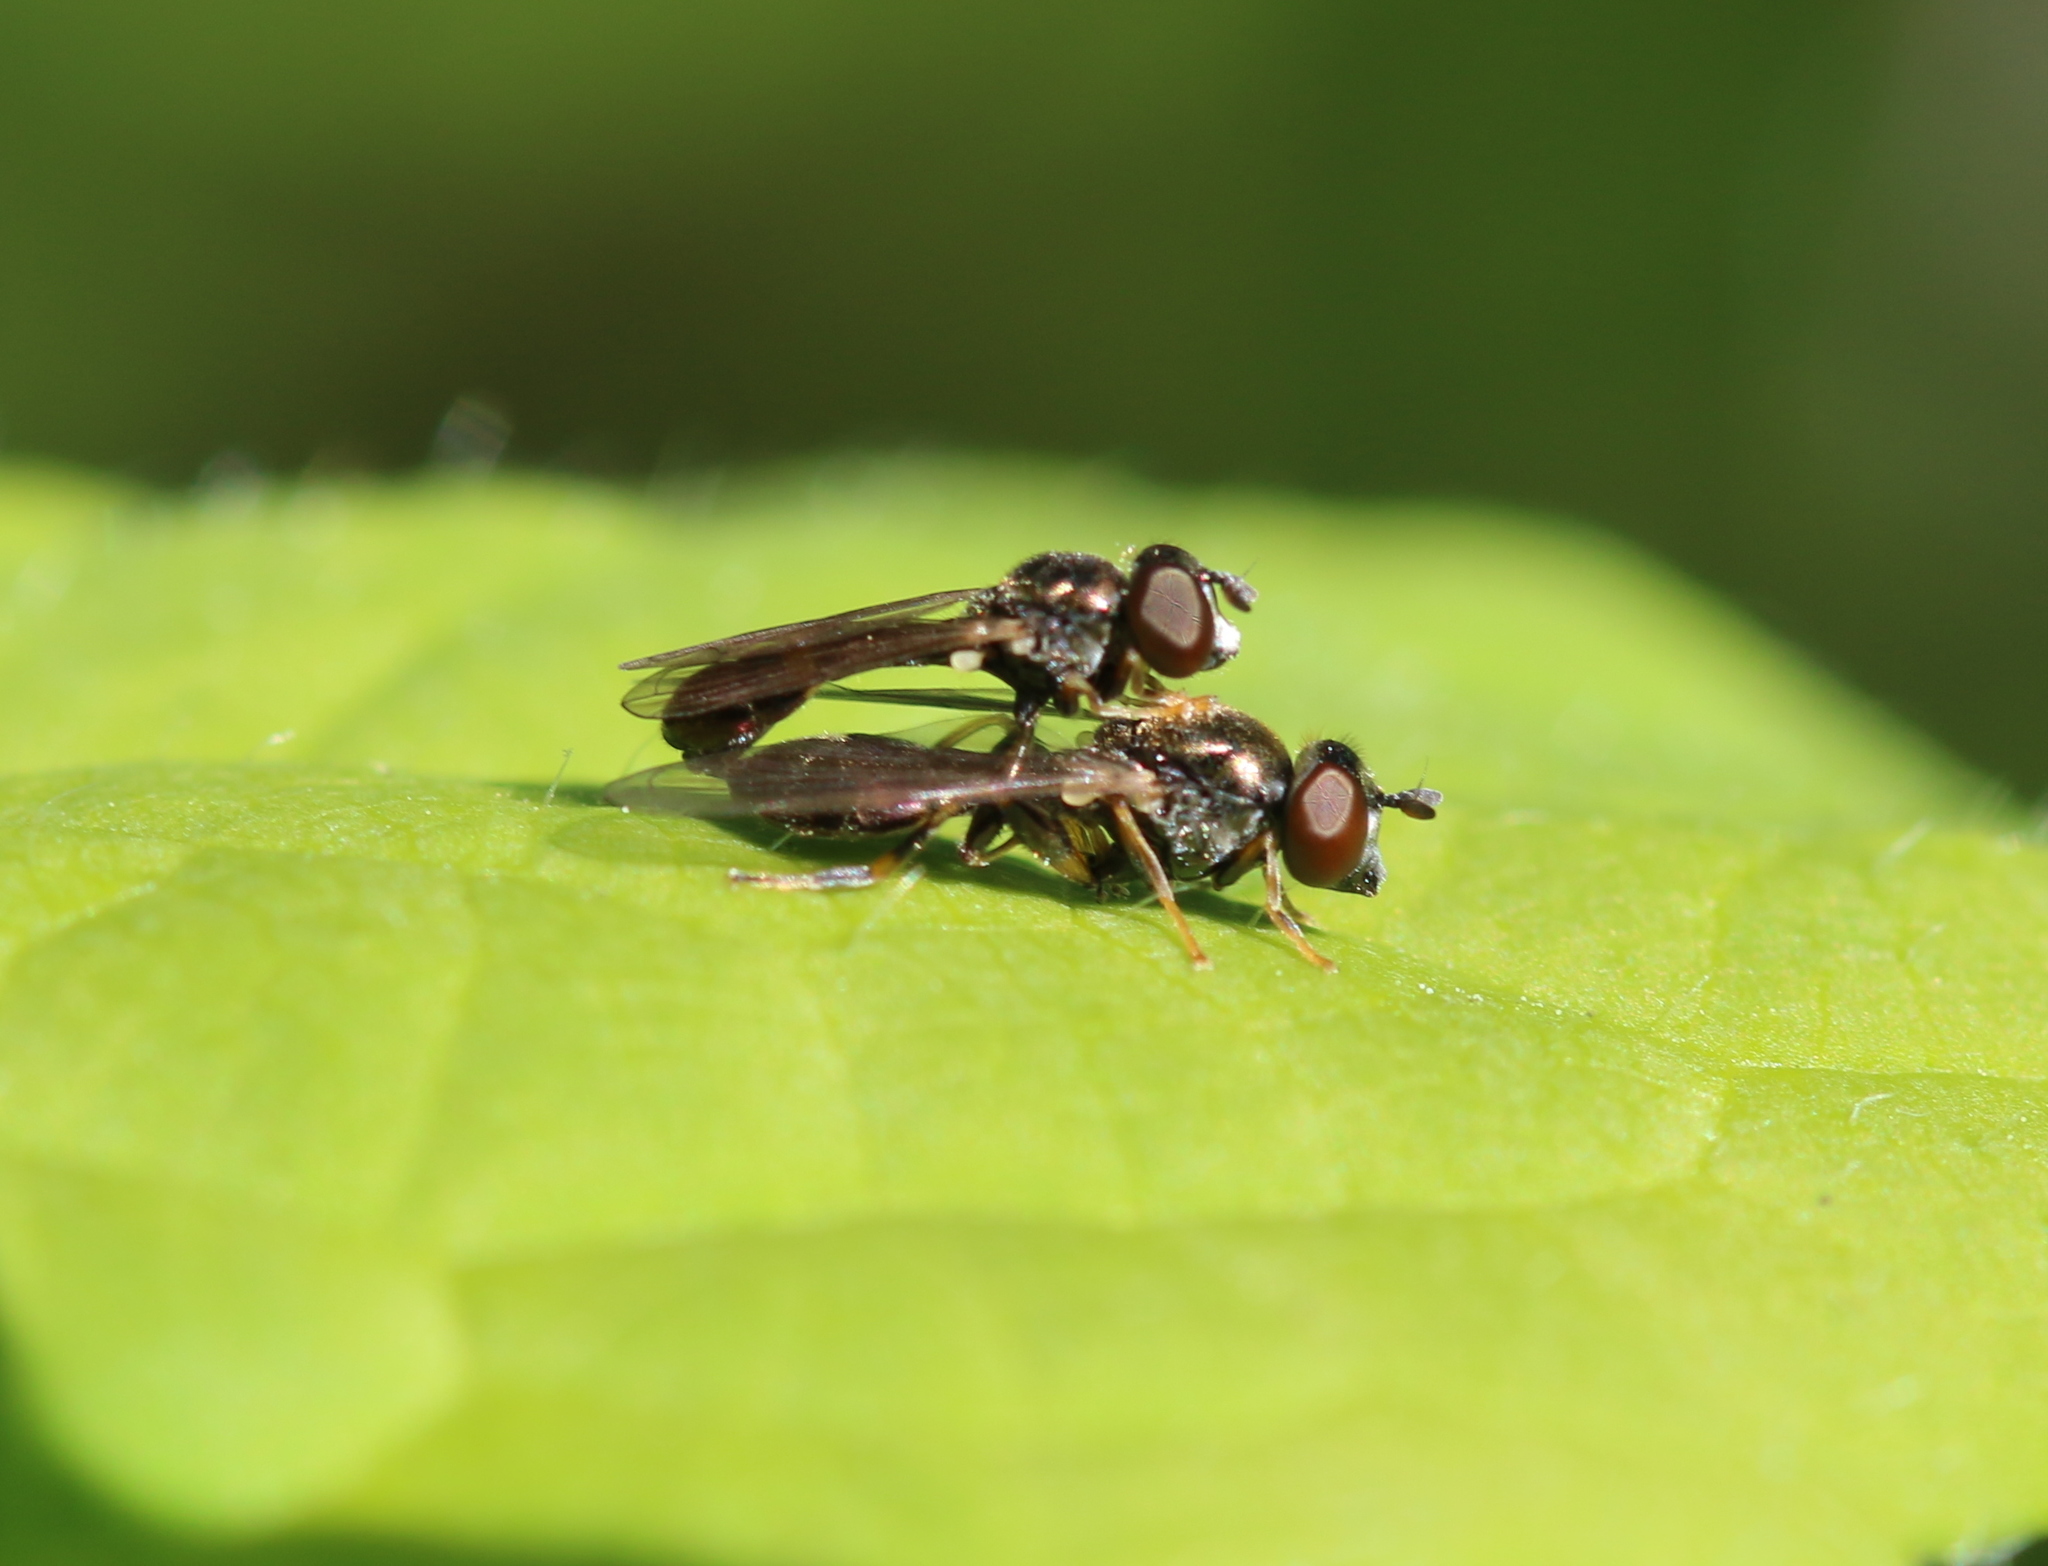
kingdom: Animalia
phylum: Arthropoda
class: Insecta
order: Diptera
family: Syrphidae
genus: Neoascia
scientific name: Neoascia
